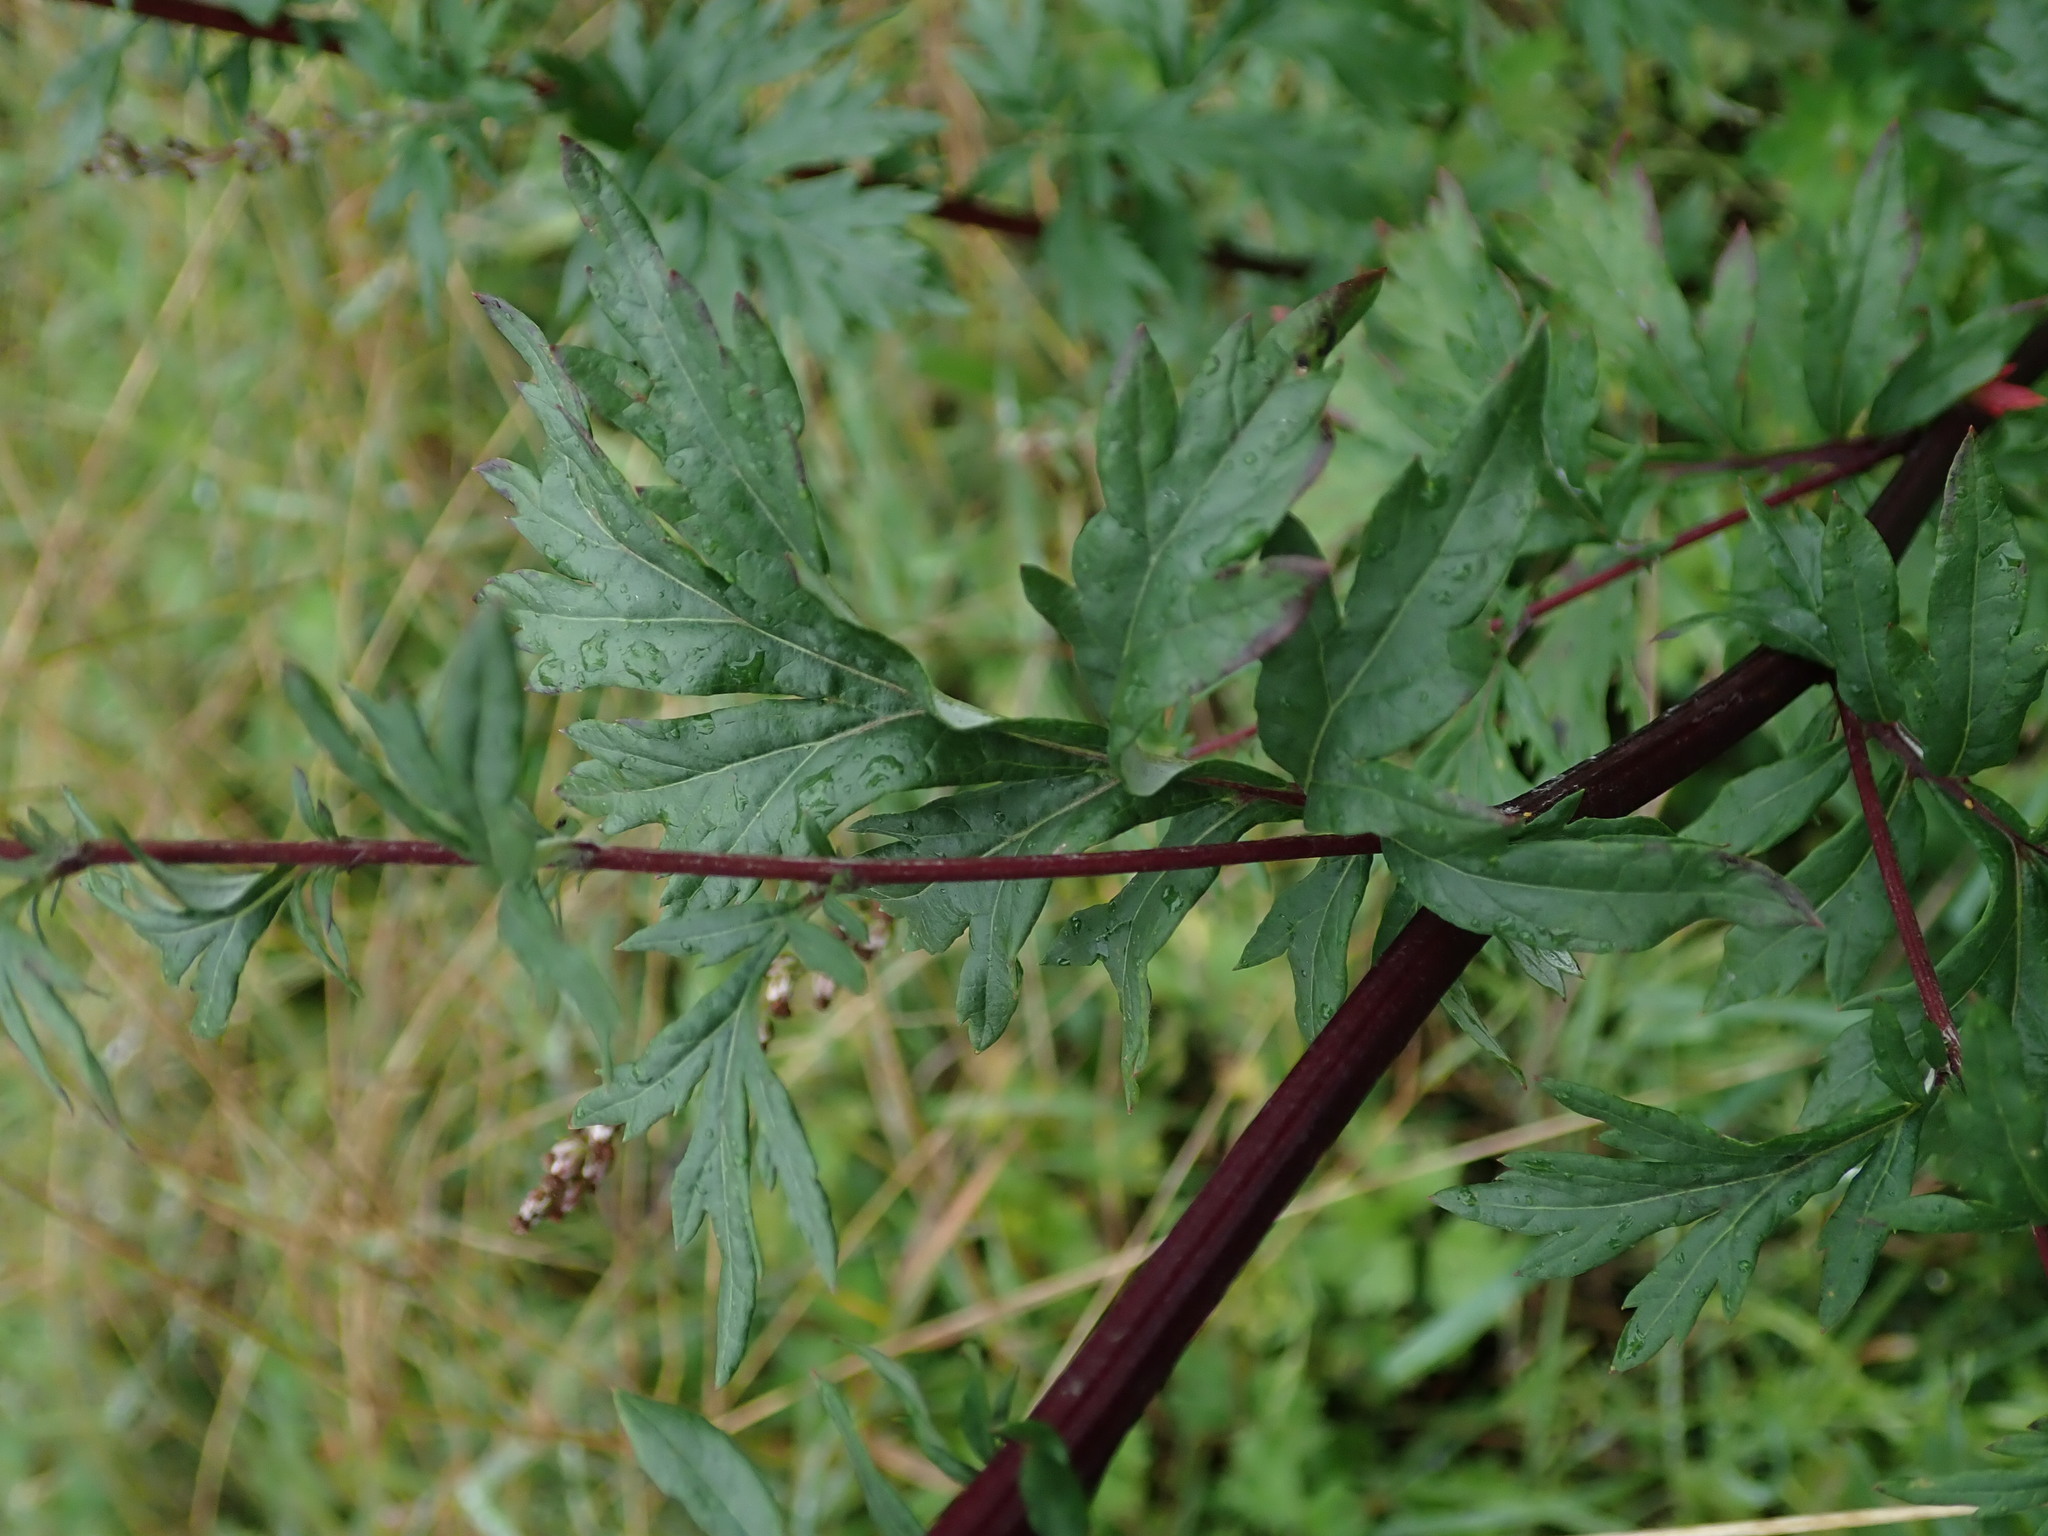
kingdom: Plantae
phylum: Tracheophyta
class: Magnoliopsida
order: Asterales
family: Asteraceae
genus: Artemisia
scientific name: Artemisia vulgaris
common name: Mugwort
